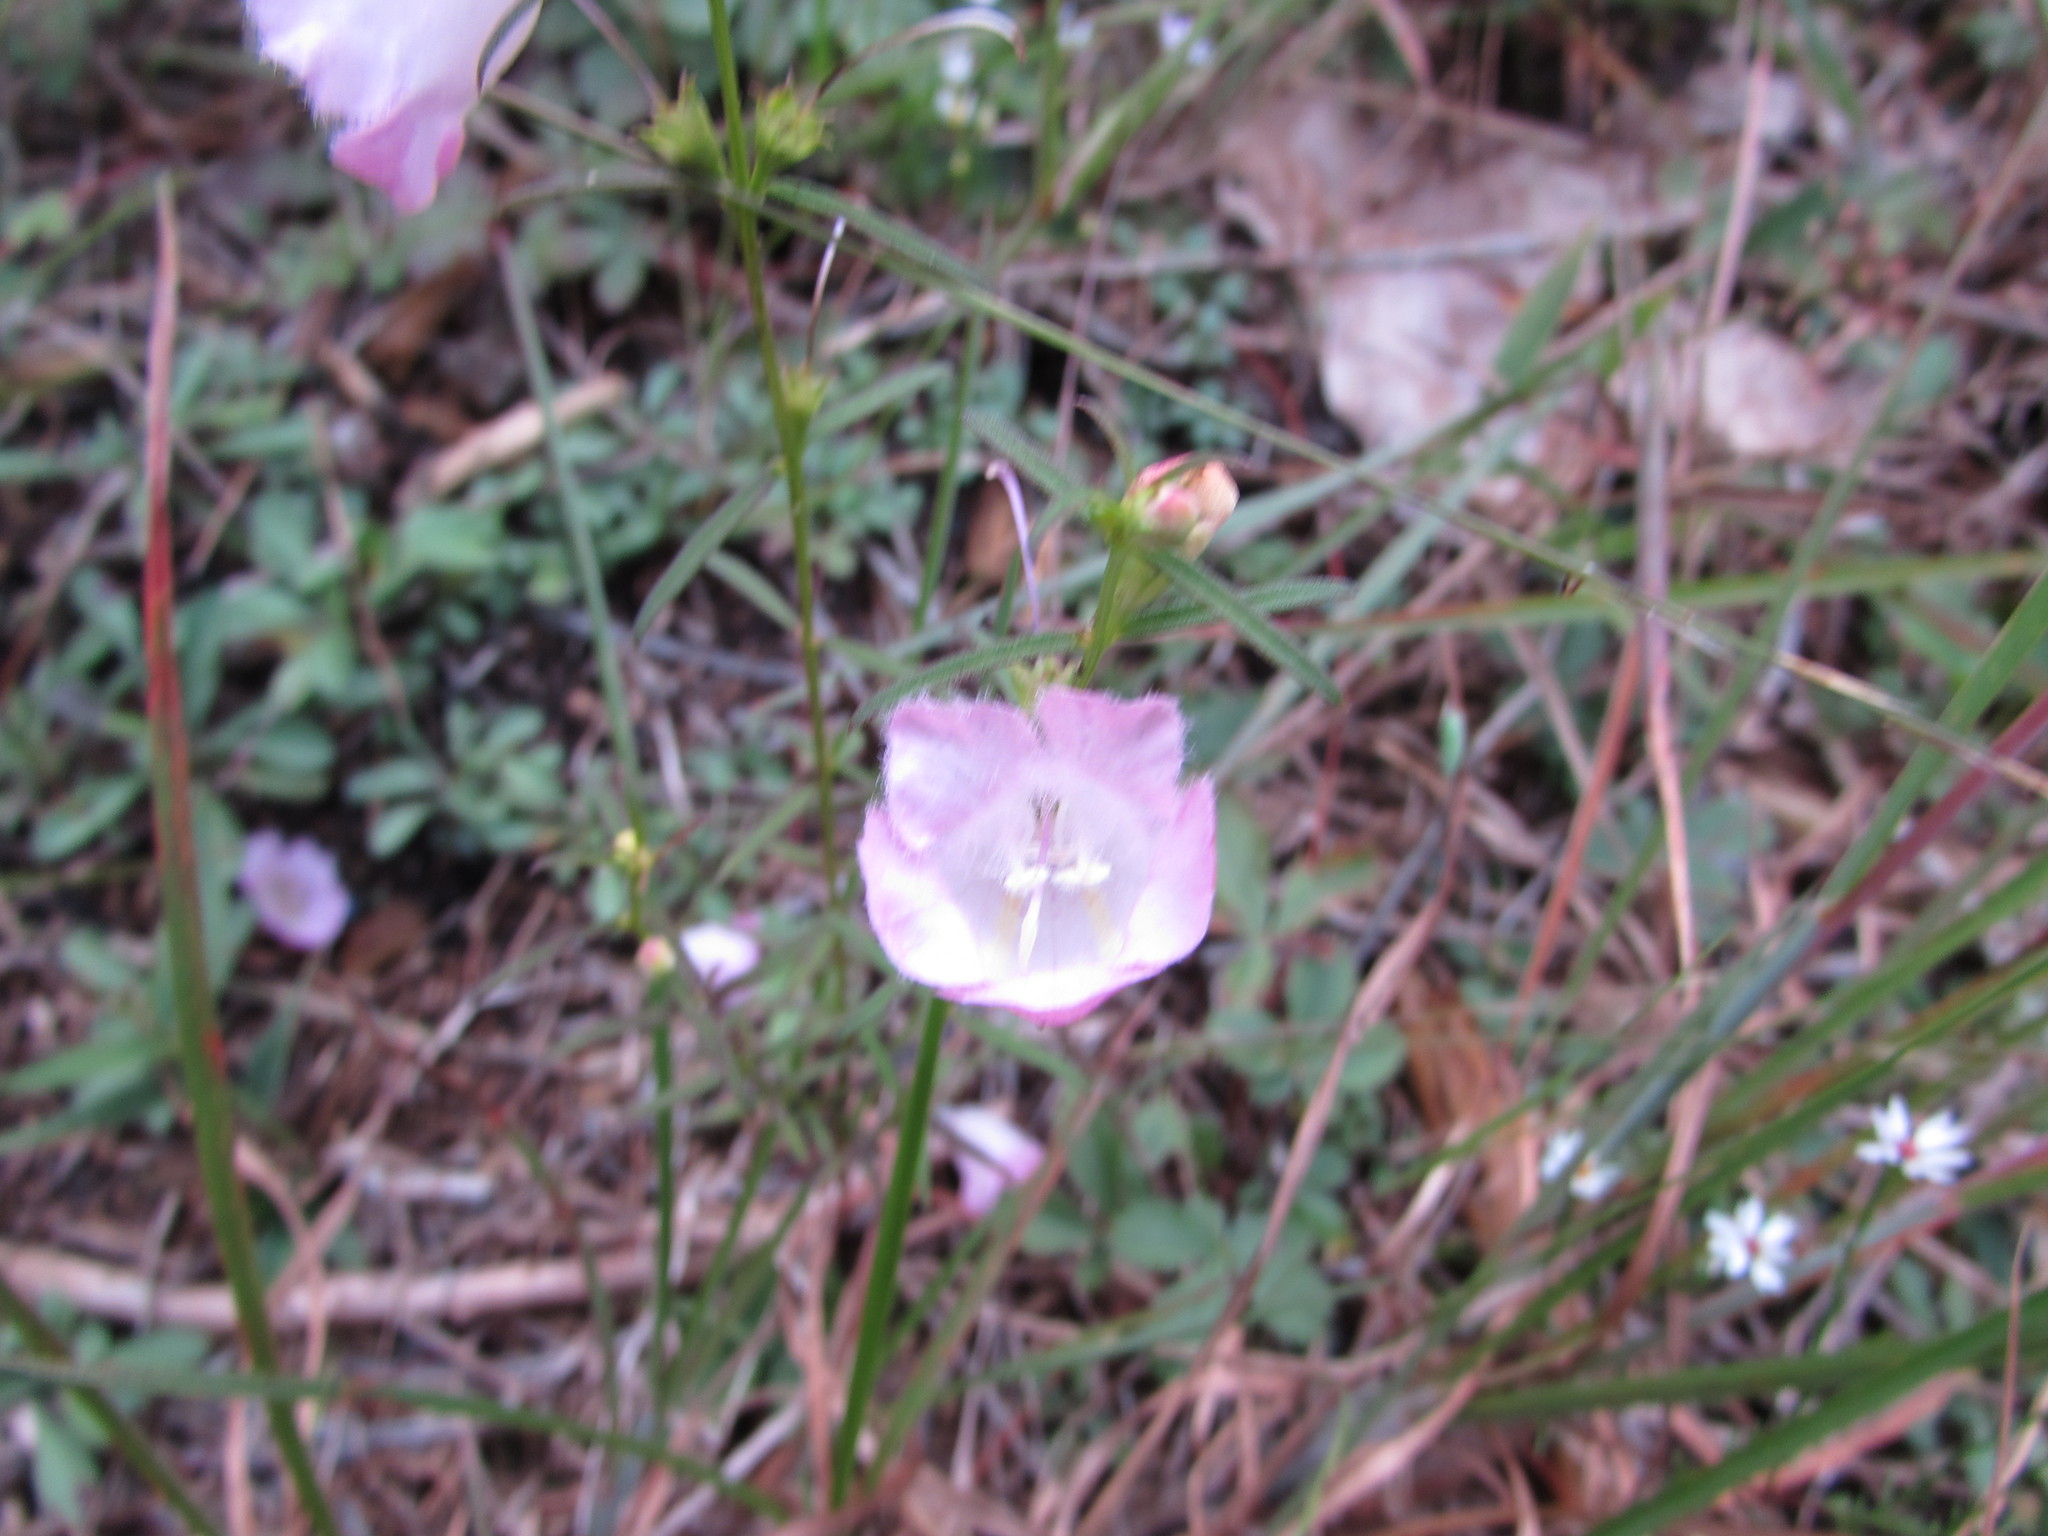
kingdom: Plantae
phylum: Tracheophyta
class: Magnoliopsida
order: Lamiales
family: Orobanchaceae
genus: Agalinis
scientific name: Agalinis purpurea
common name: Purple false foxglove
